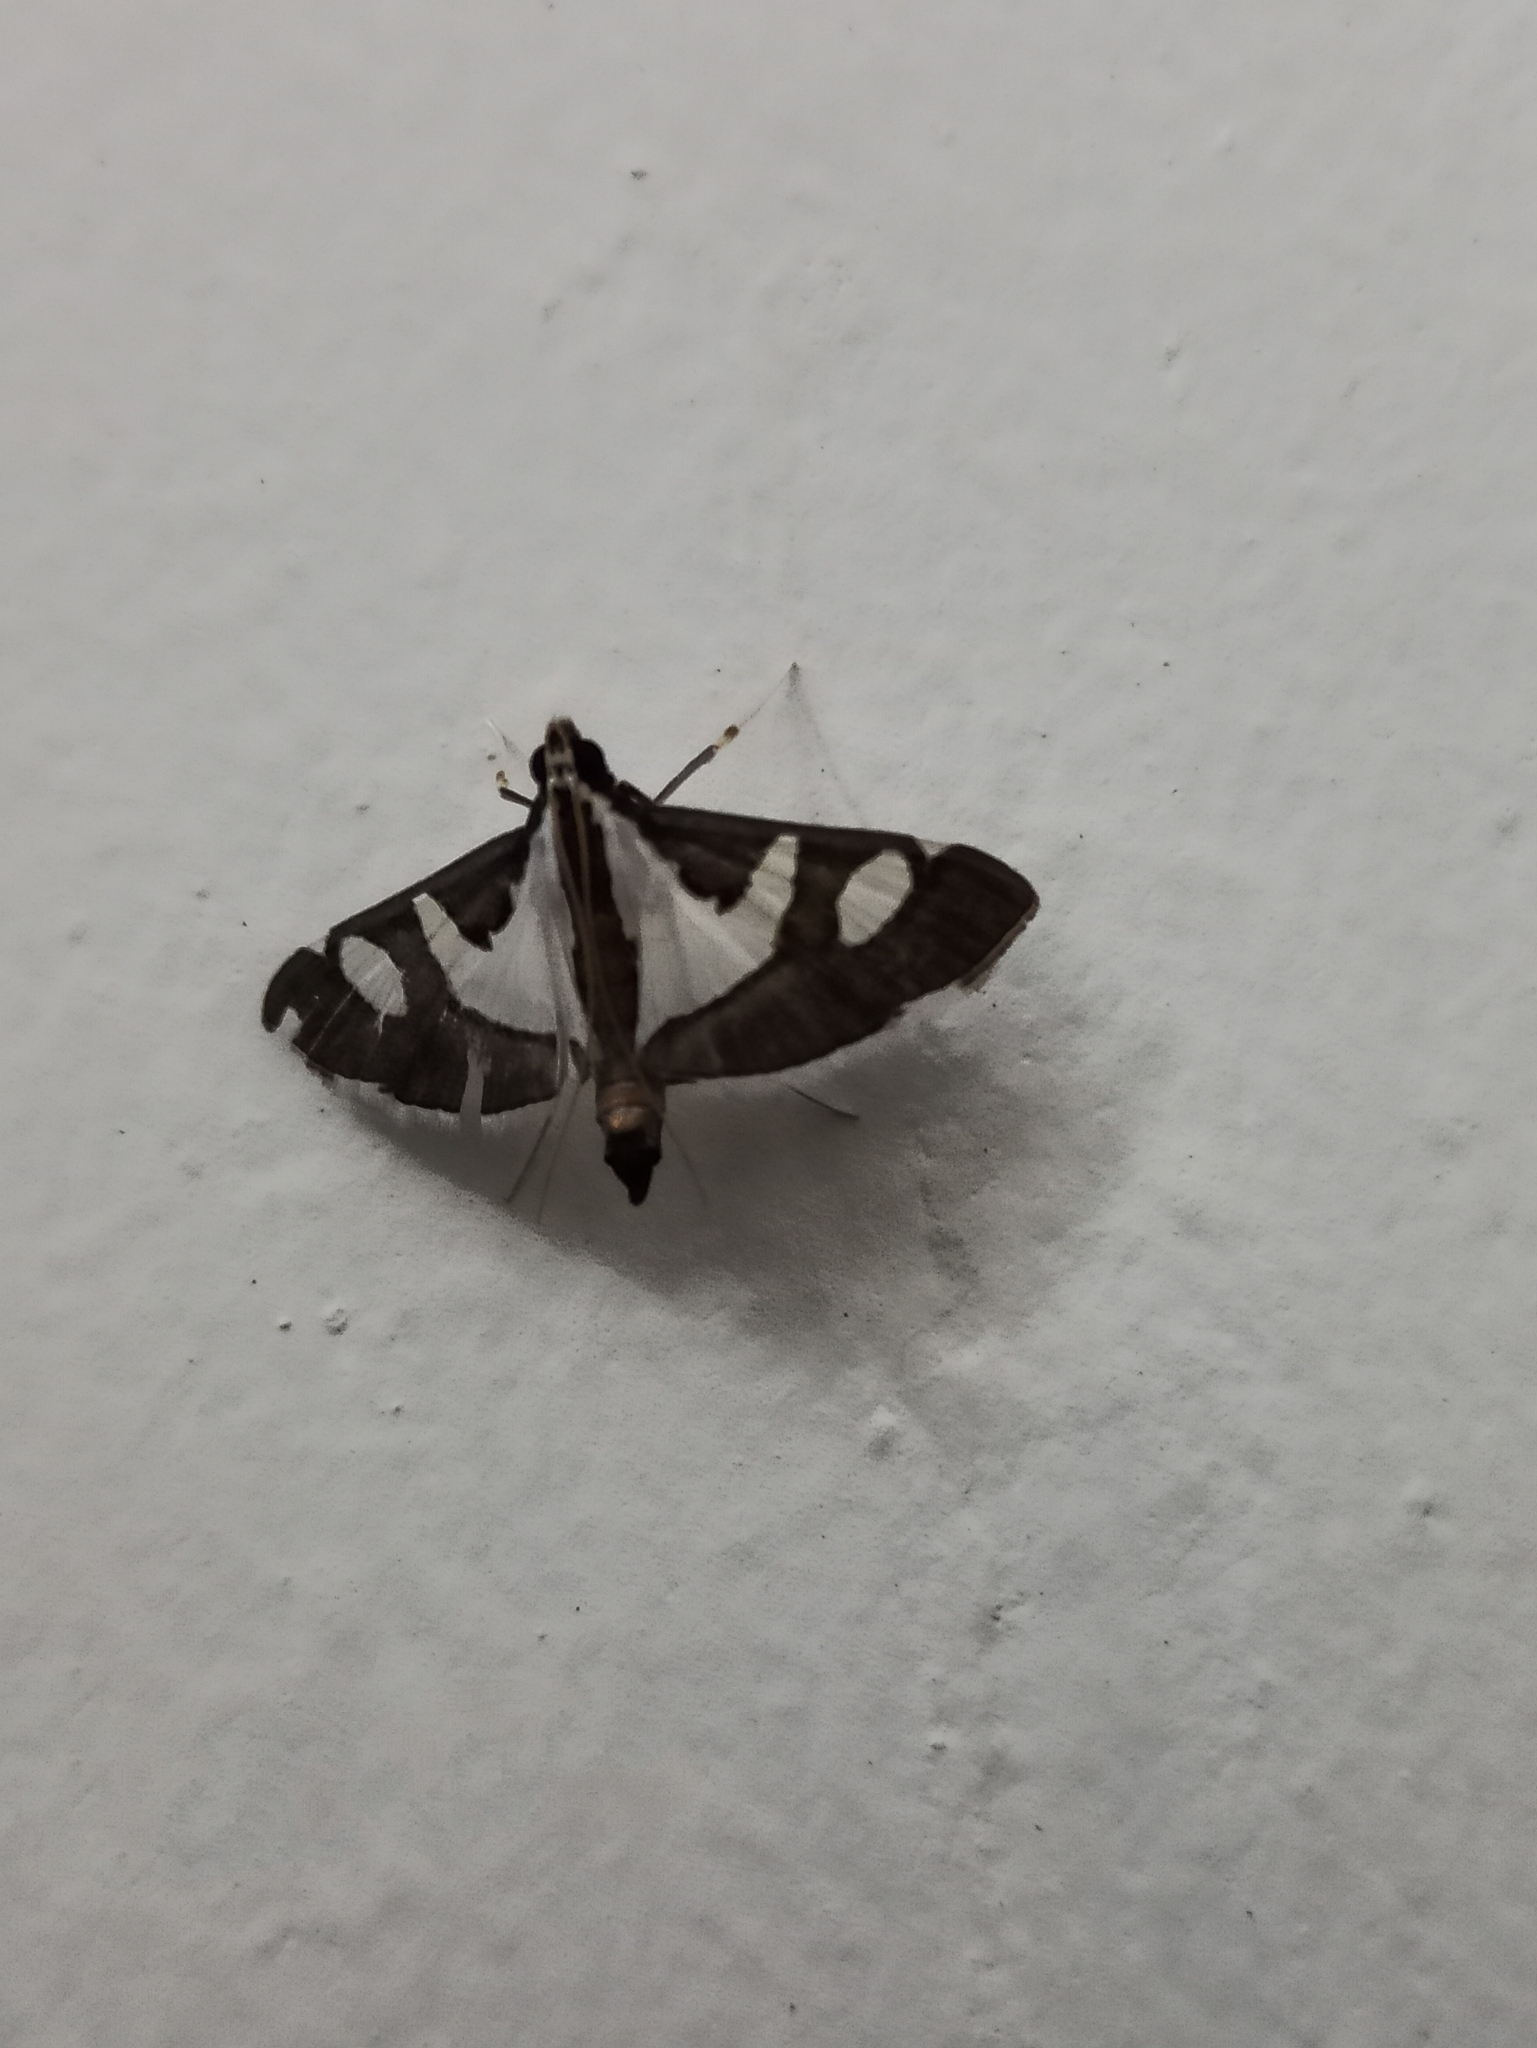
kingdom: Animalia
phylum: Arthropoda
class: Insecta
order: Lepidoptera
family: Crambidae
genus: Glyphodes
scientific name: Glyphodes bicolor
